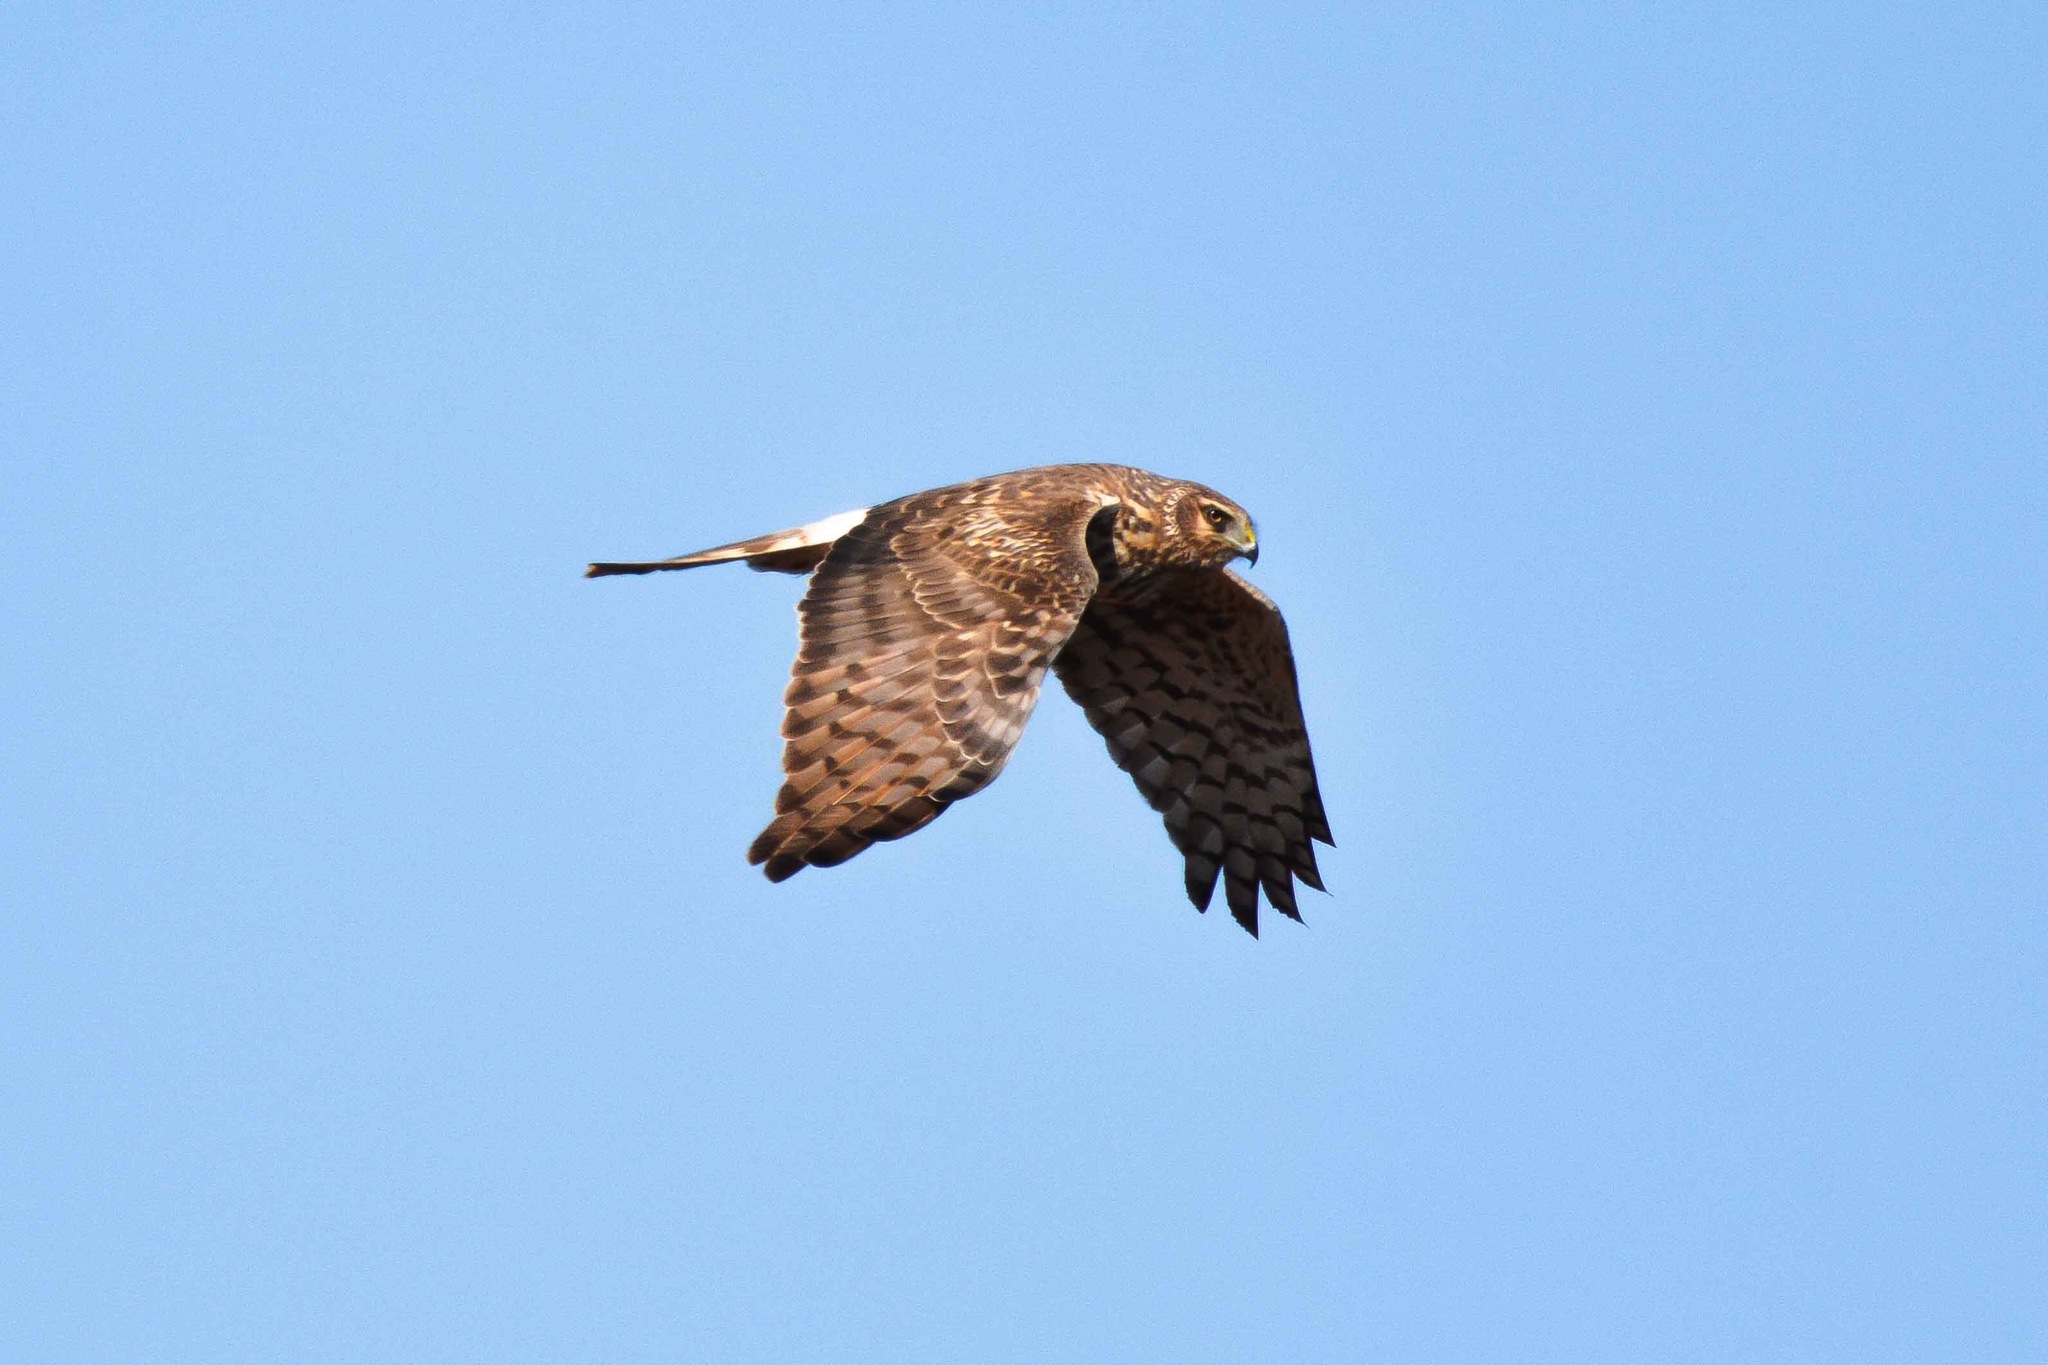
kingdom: Animalia
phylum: Chordata
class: Aves
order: Accipitriformes
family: Accipitridae
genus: Circus
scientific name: Circus cyaneus
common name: Hen harrier
